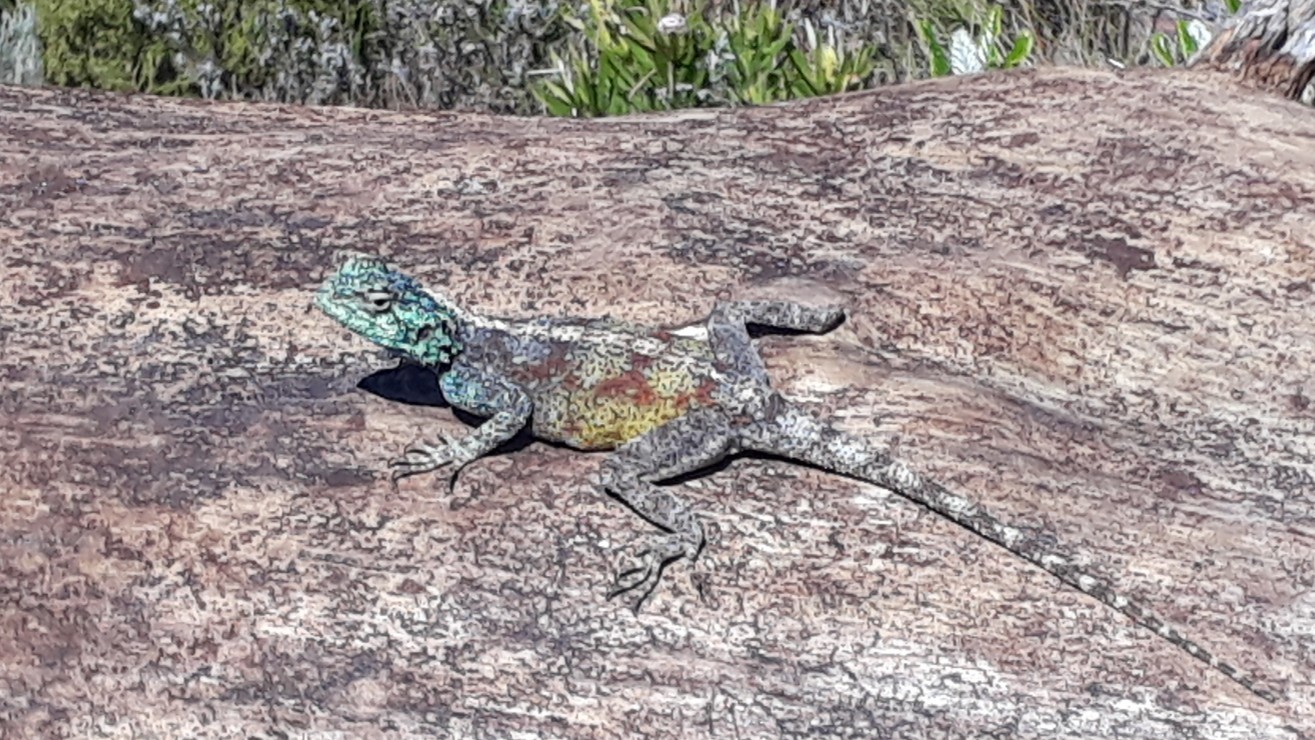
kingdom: Animalia
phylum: Chordata
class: Squamata
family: Agamidae
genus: Agama
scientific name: Agama atra
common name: Southern african rock agama
